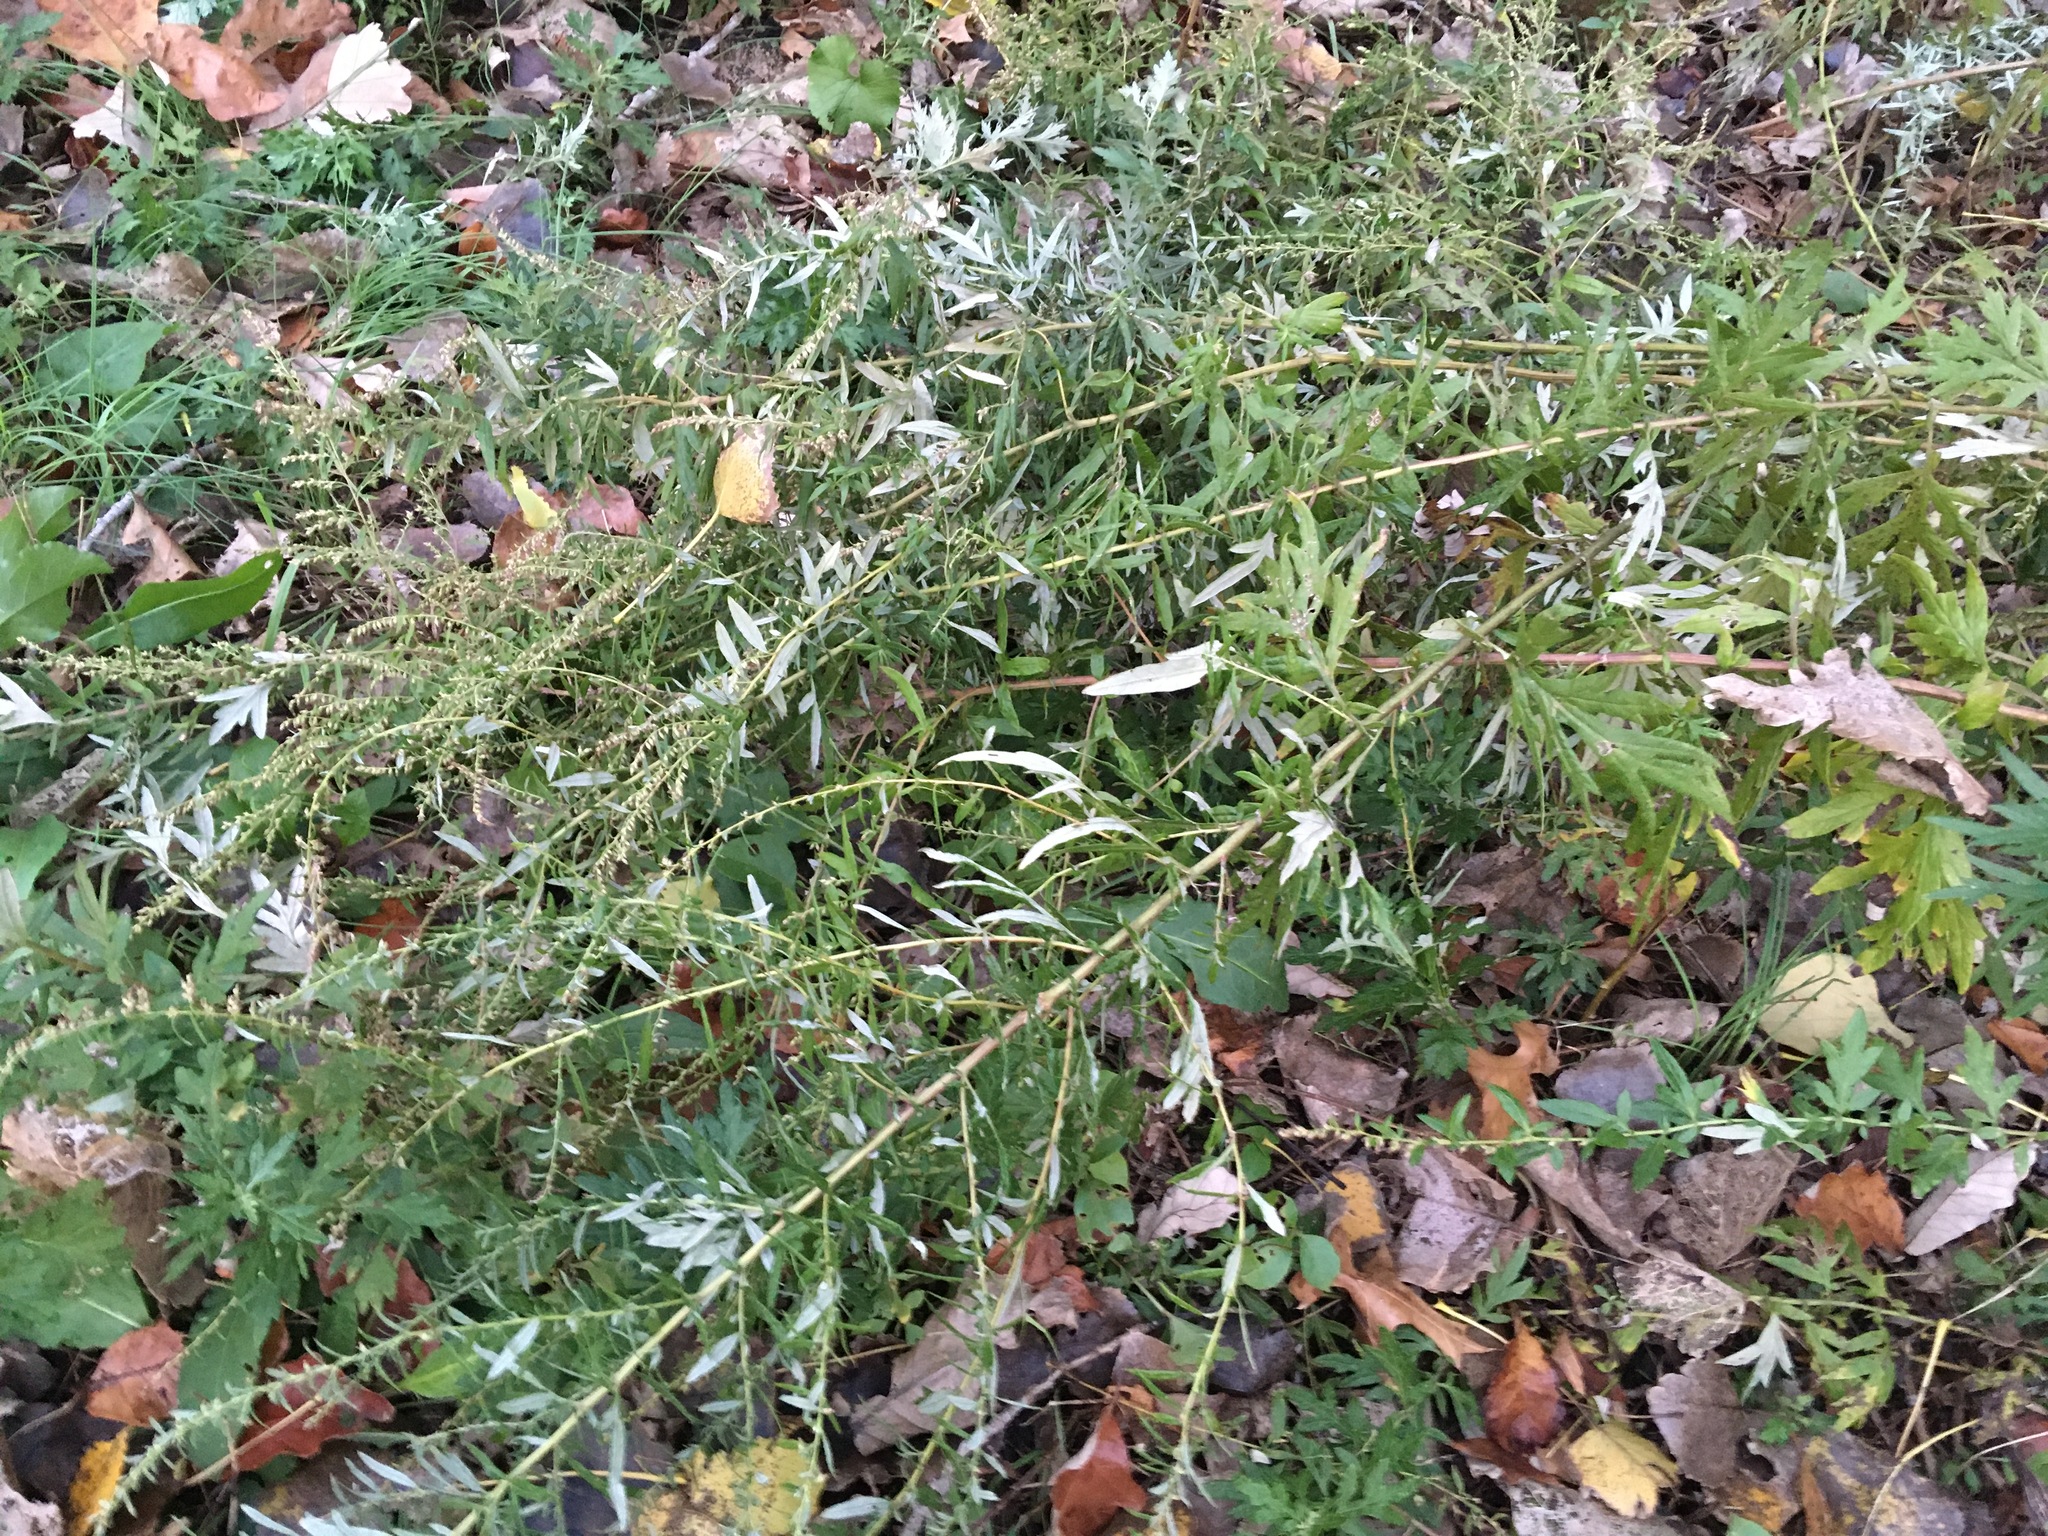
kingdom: Plantae
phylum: Tracheophyta
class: Magnoliopsida
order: Asterales
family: Asteraceae
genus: Artemisia
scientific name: Artemisia vulgaris
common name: Mugwort
